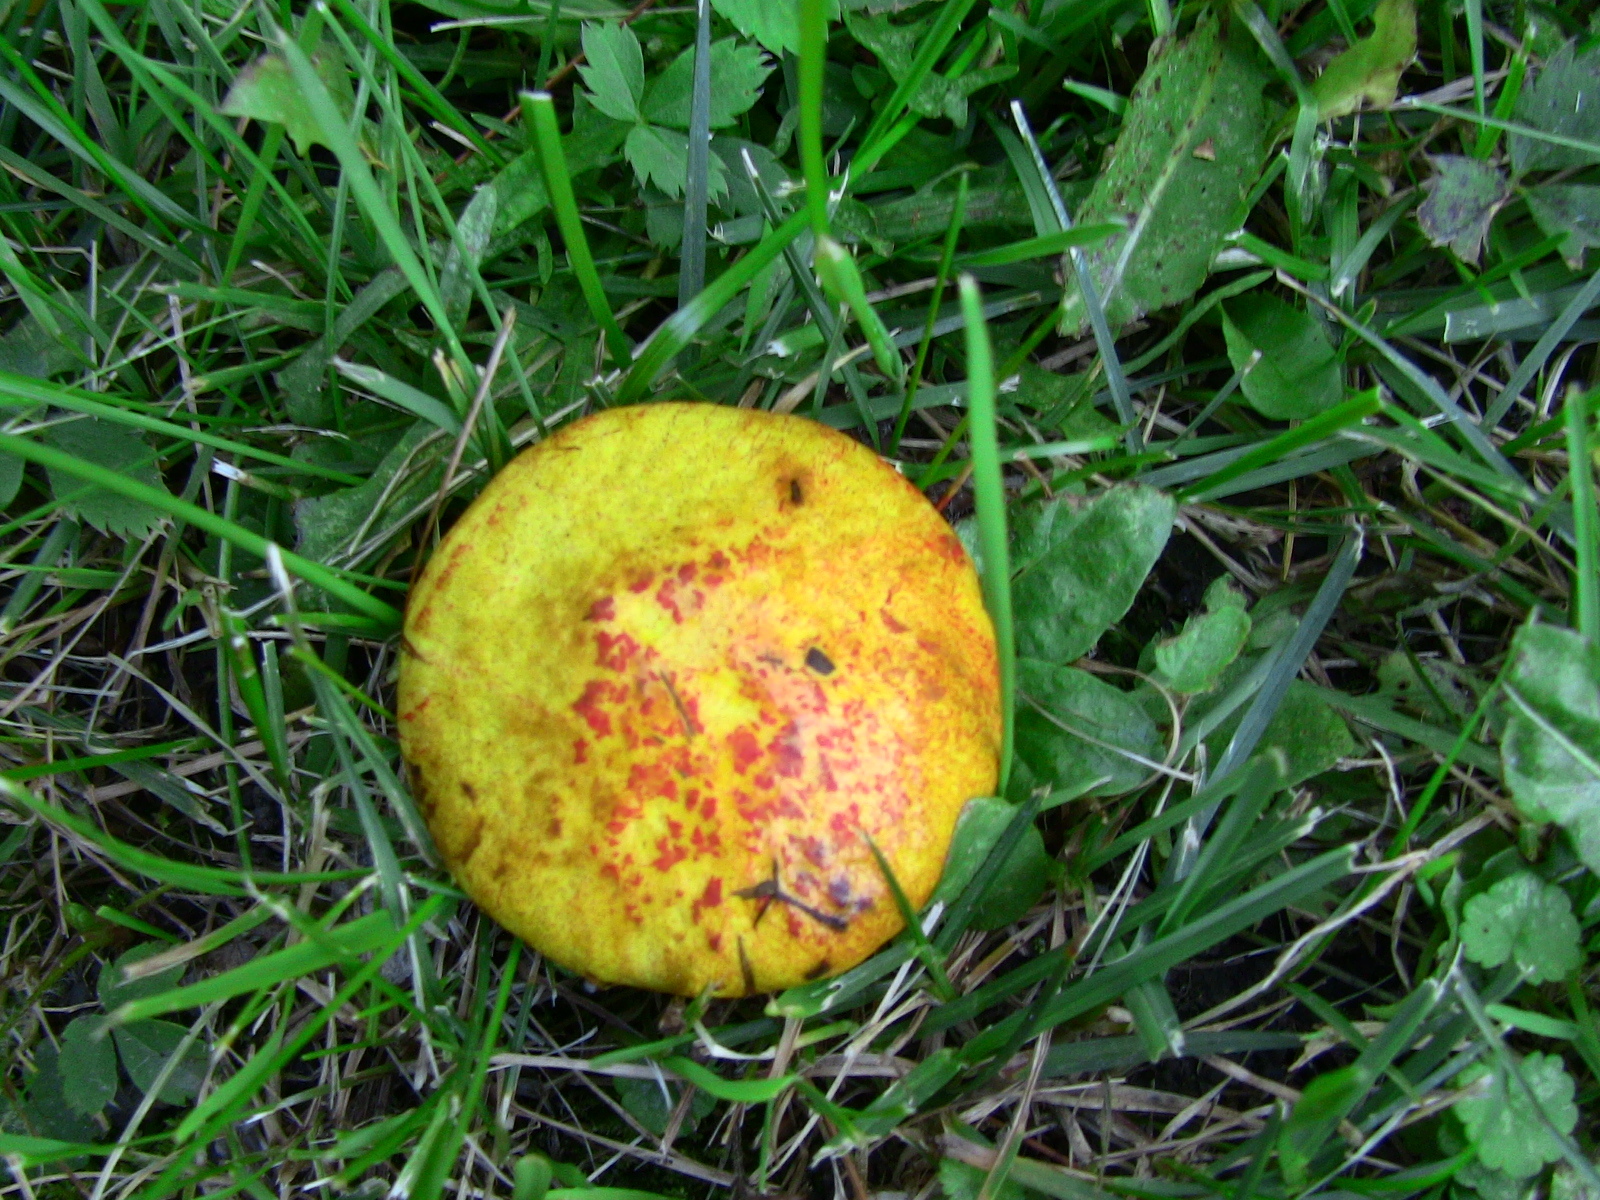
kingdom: Fungi
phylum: Basidiomycota
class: Agaricomycetes
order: Boletales
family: Suillaceae
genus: Suillus
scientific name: Suillus americanus
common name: Chicken fat mushroom
